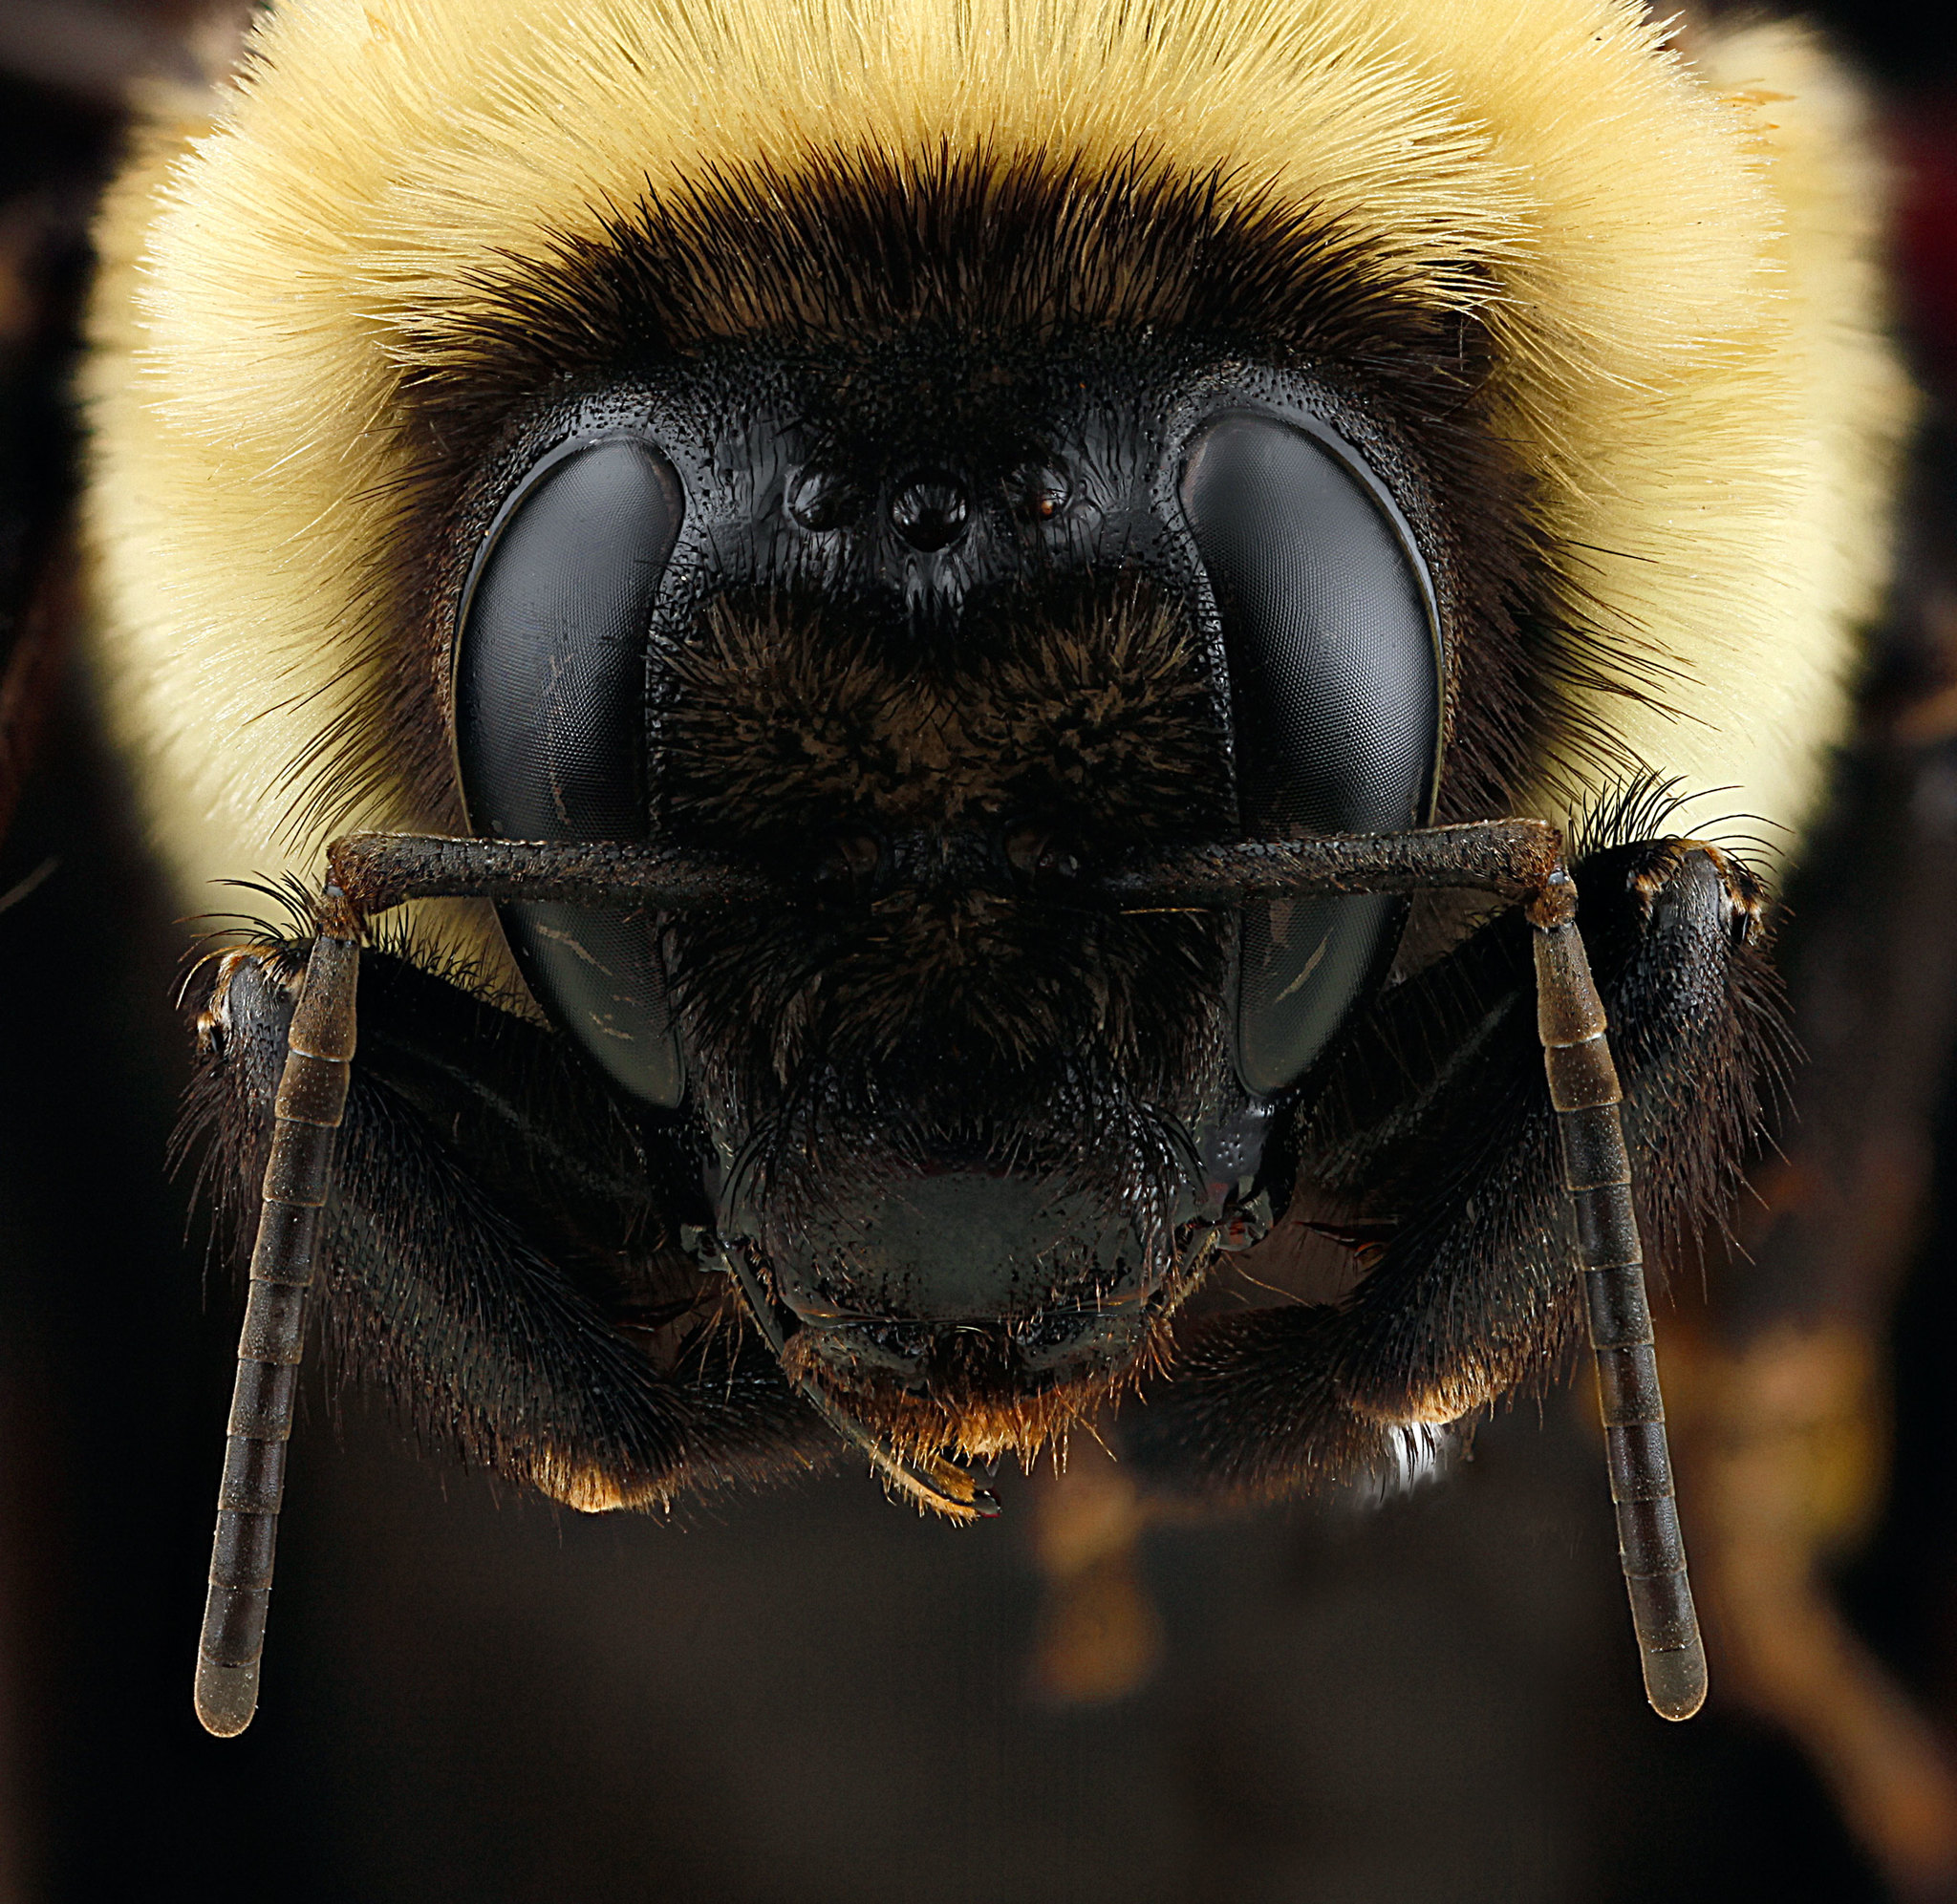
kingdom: Animalia
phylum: Arthropoda
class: Insecta
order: Hymenoptera
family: Apidae
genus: Bombus
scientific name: Bombus griseocollis
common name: Brown-belted bumble bee
